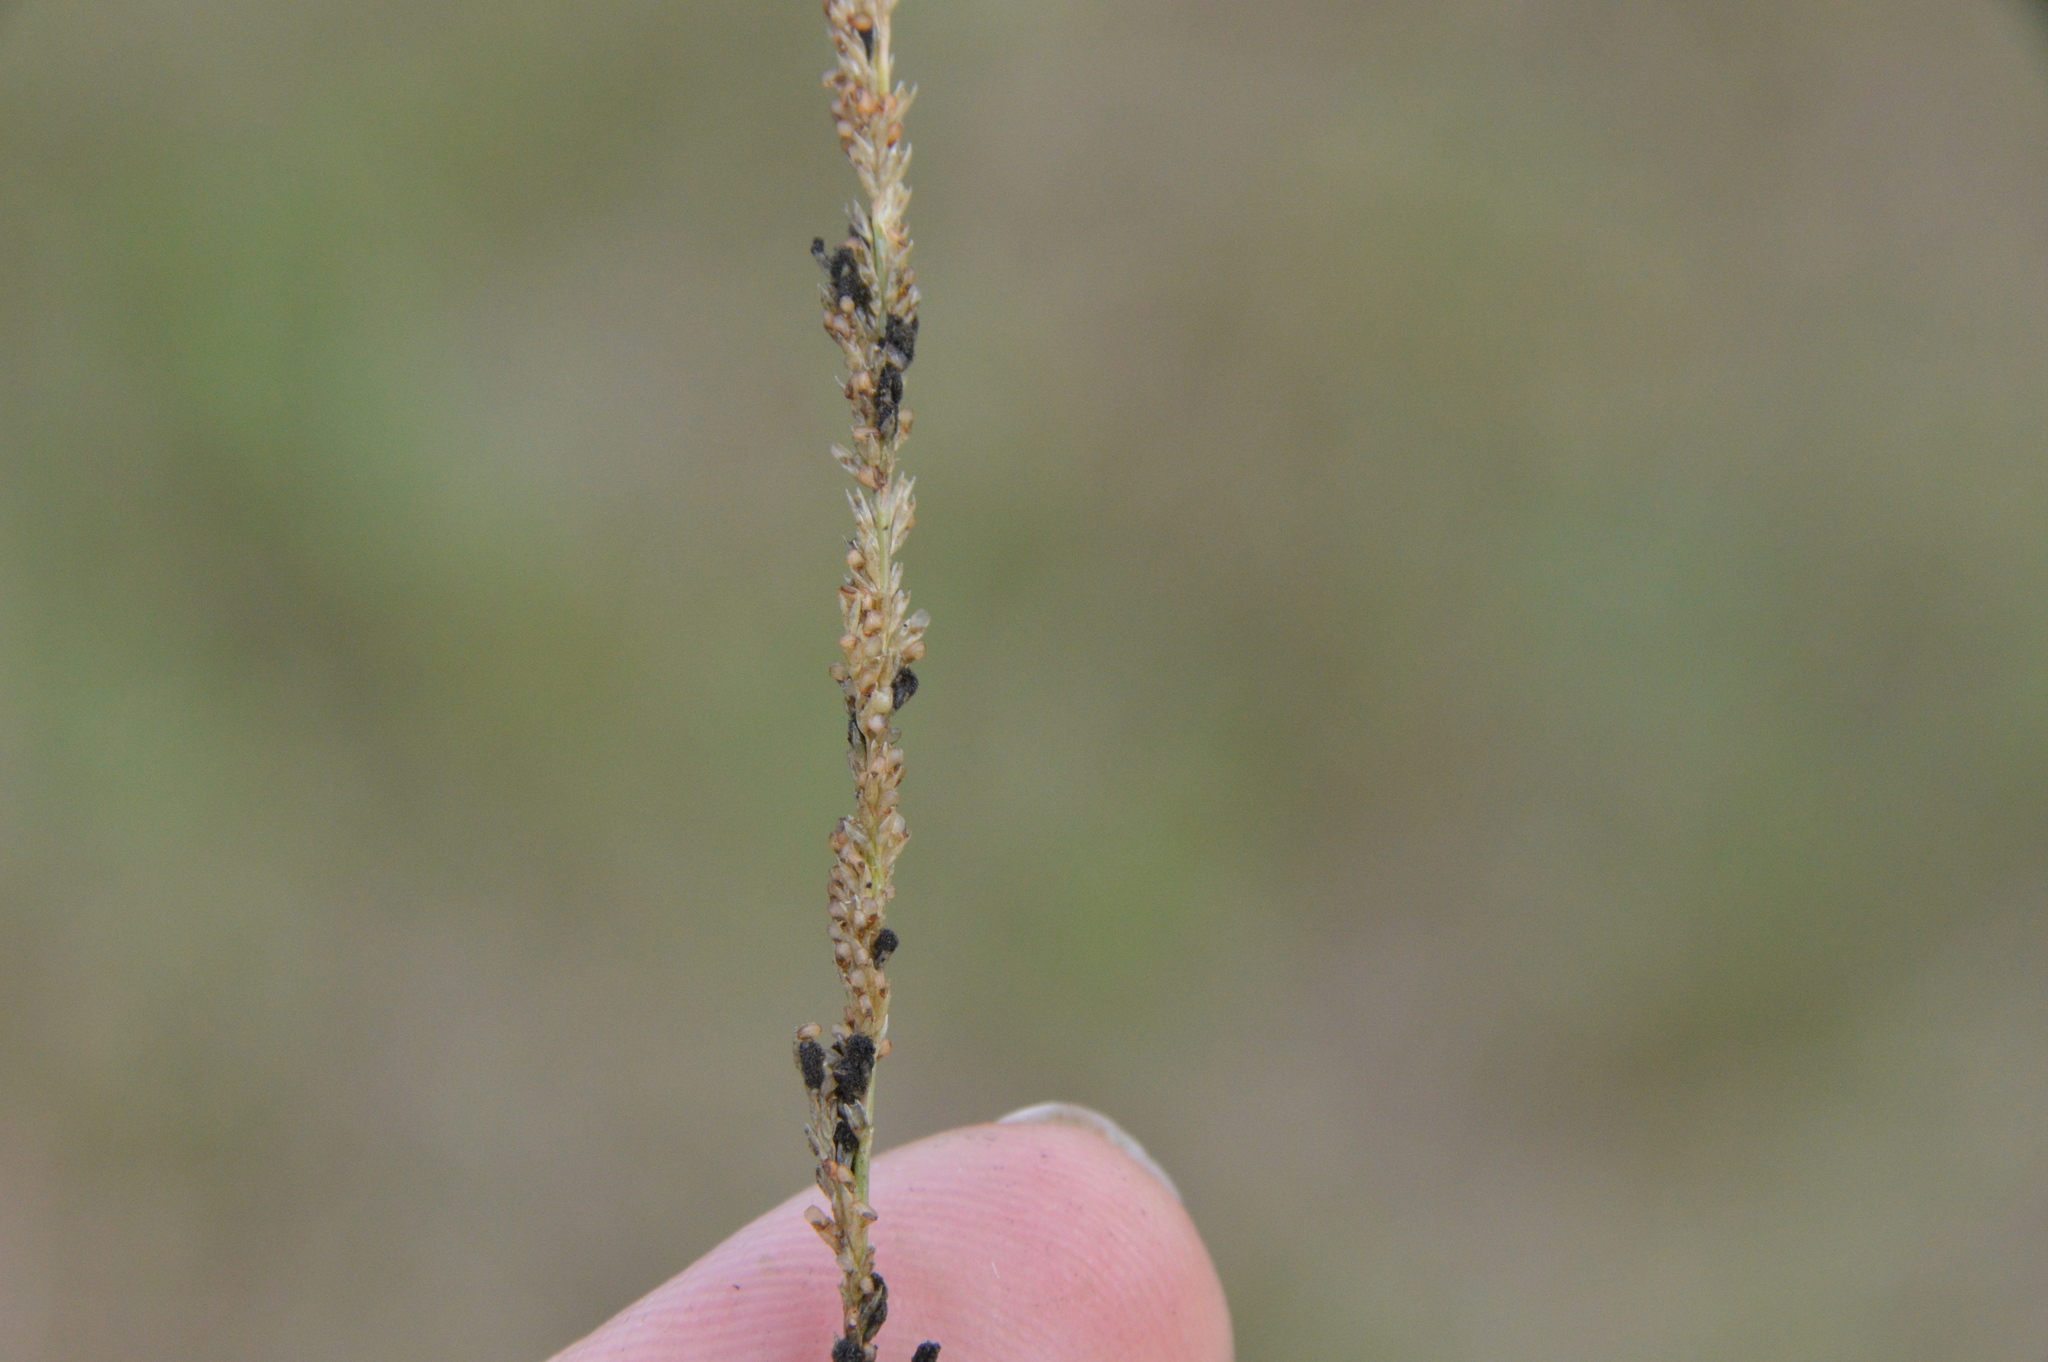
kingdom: Plantae
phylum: Tracheophyta
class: Liliopsida
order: Poales
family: Poaceae
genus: Sporobolus
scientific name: Sporobolus indicus
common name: Smut grass
